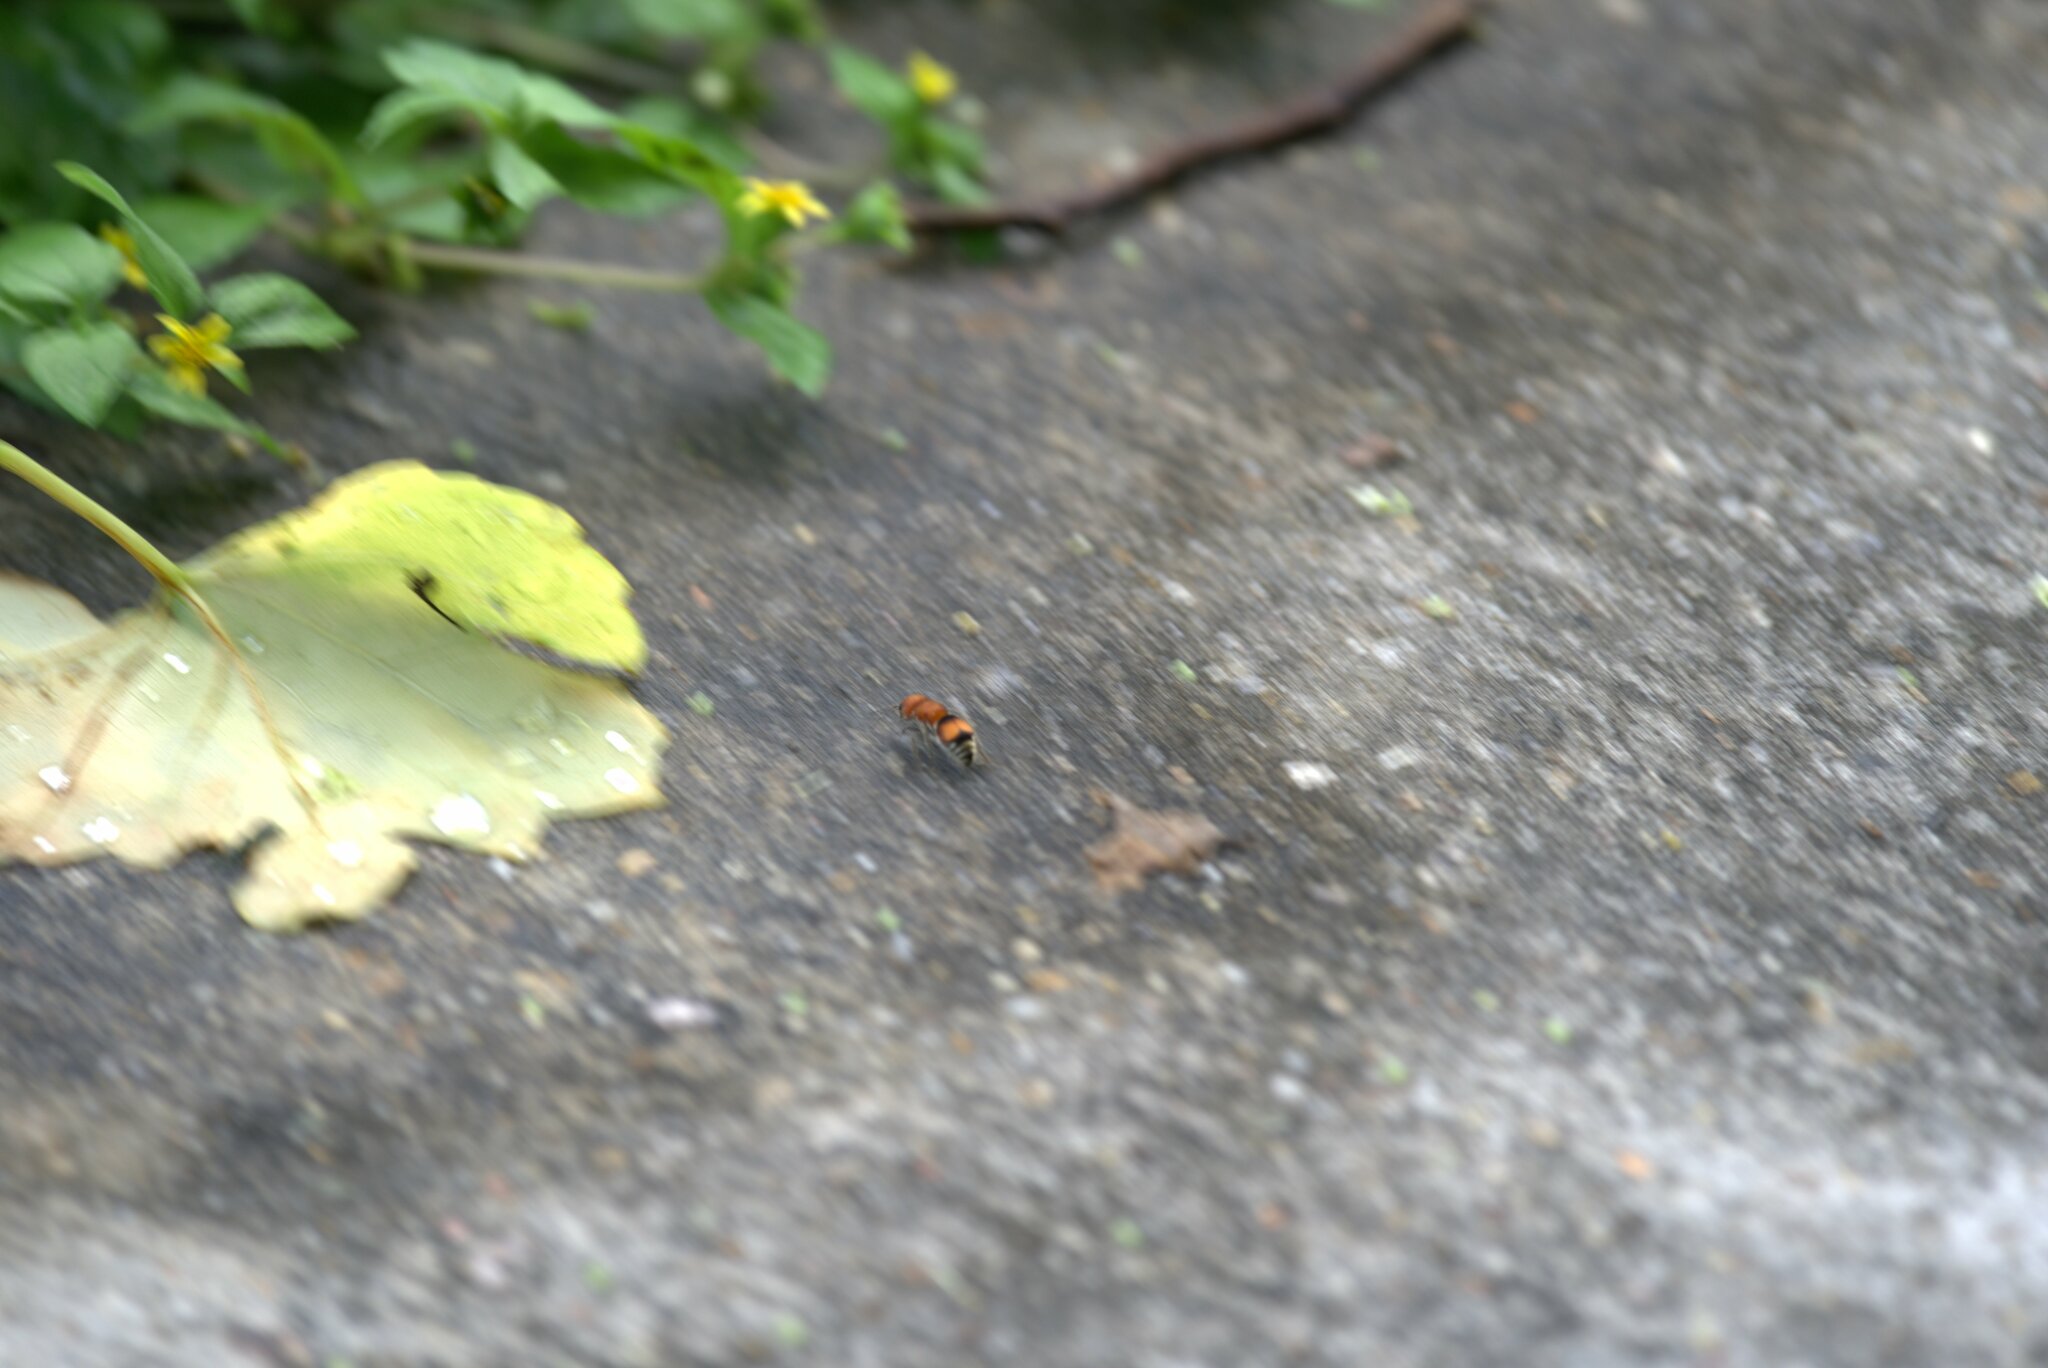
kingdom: Animalia
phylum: Arthropoda
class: Insecta
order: Hymenoptera
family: Mutillidae
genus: Pseudomethoca
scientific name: Pseudomethoca
